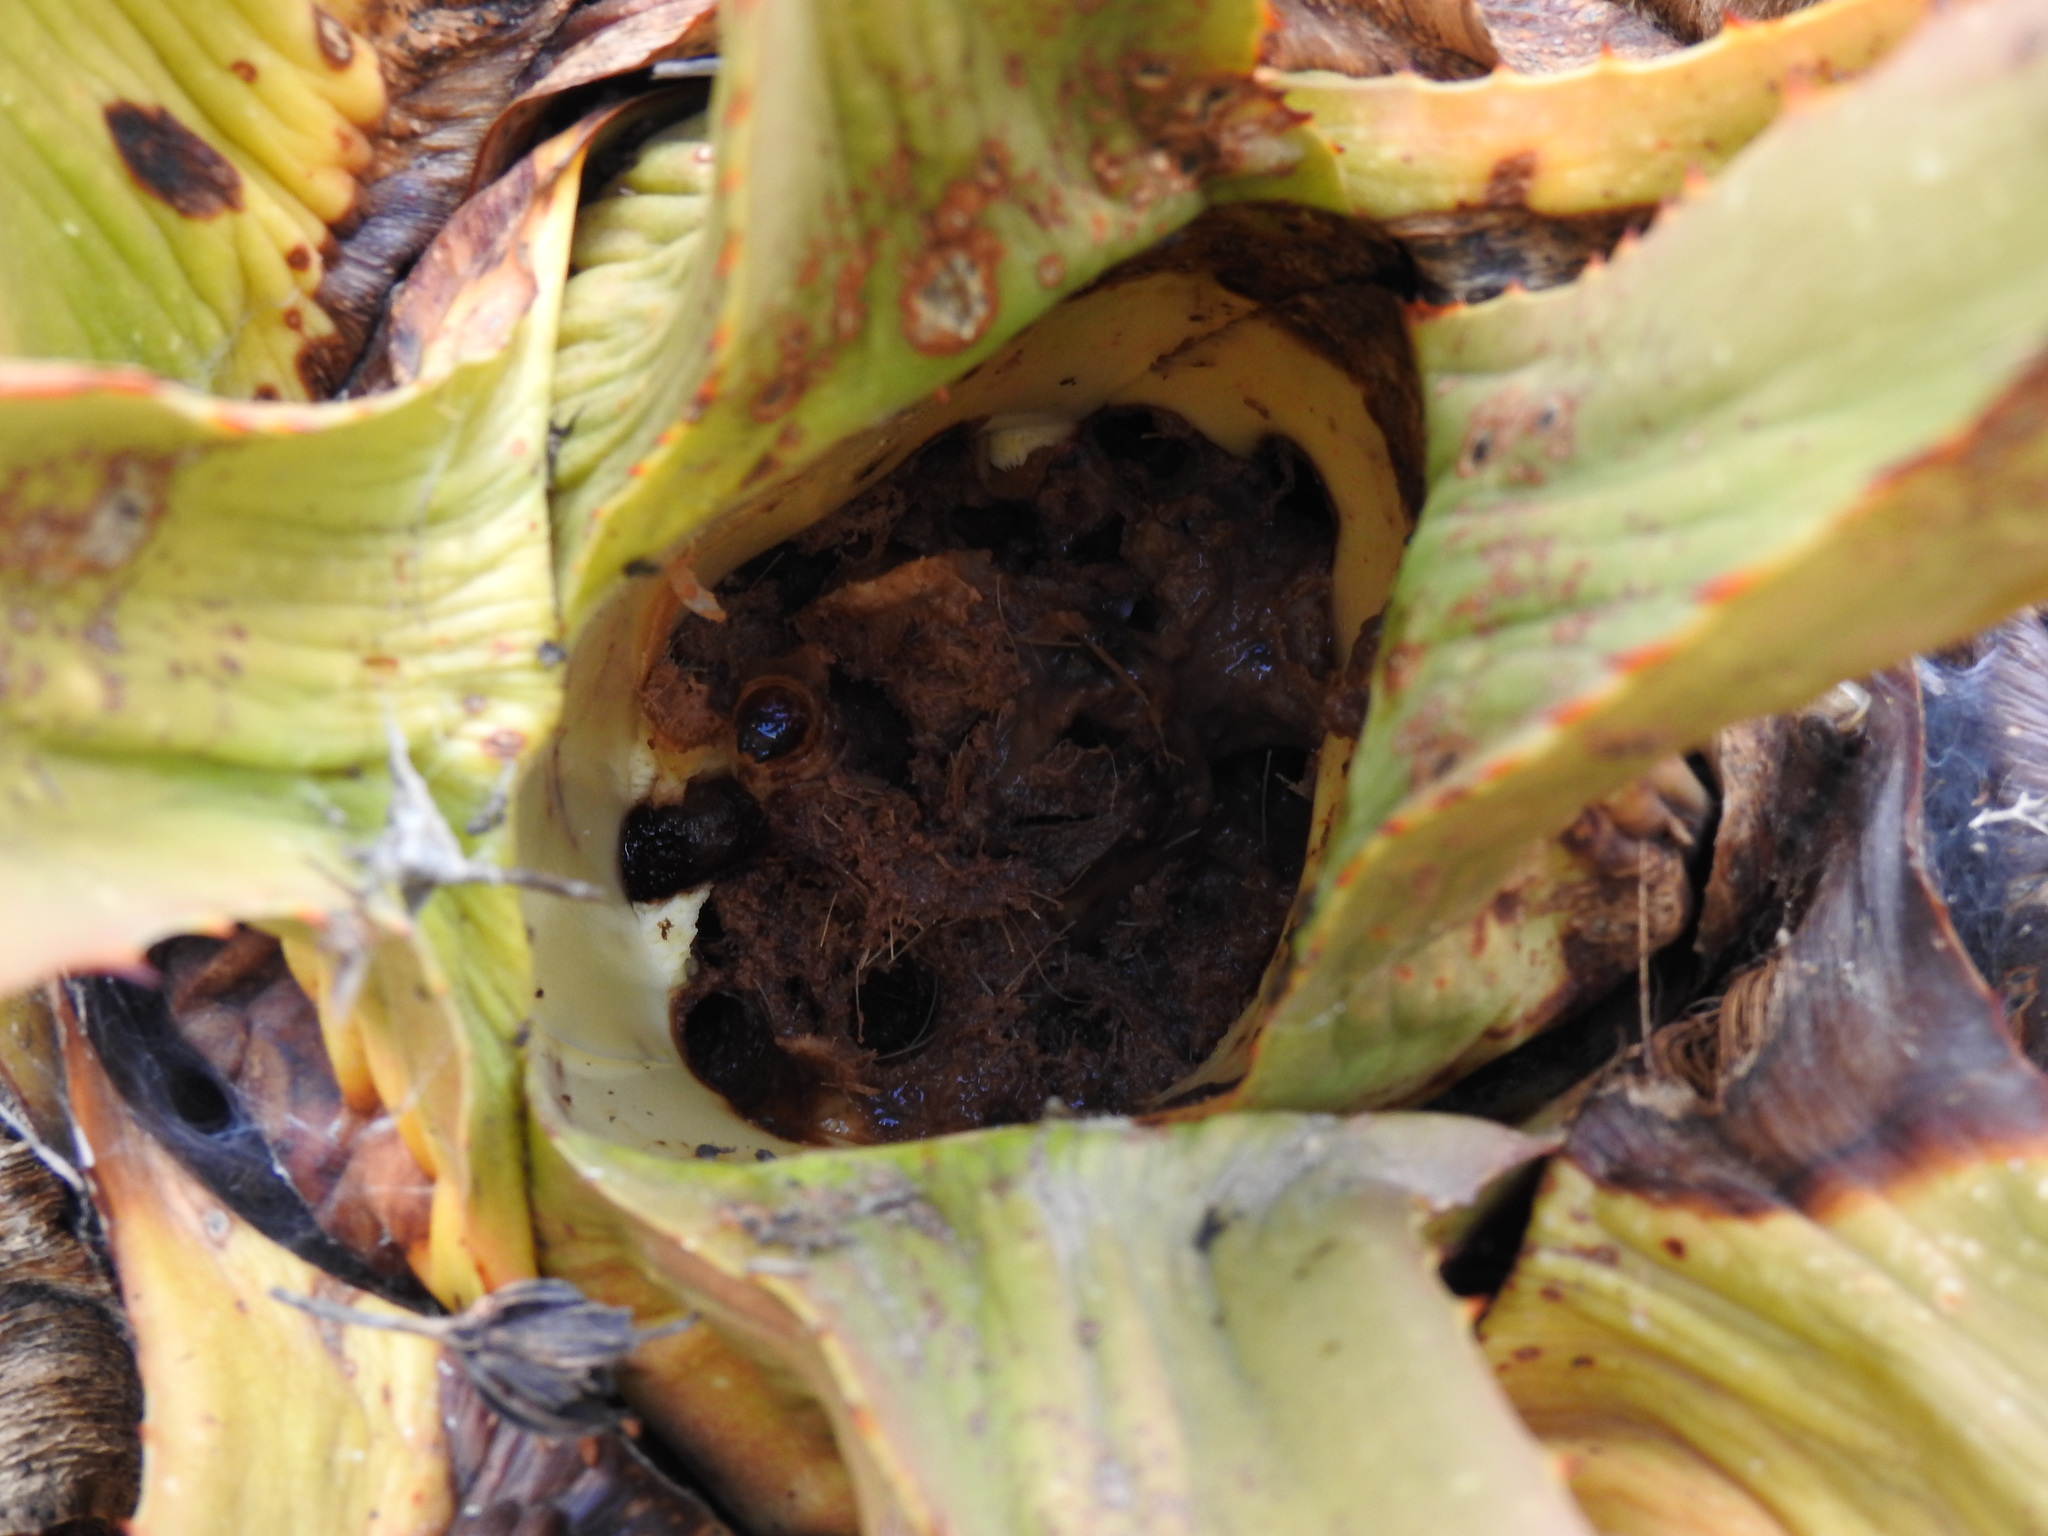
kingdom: Animalia
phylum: Arthropoda
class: Insecta
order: Coleoptera
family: Dryophthoridae
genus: Scyphophorus
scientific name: Scyphophorus acupunctatus
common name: Weevil
